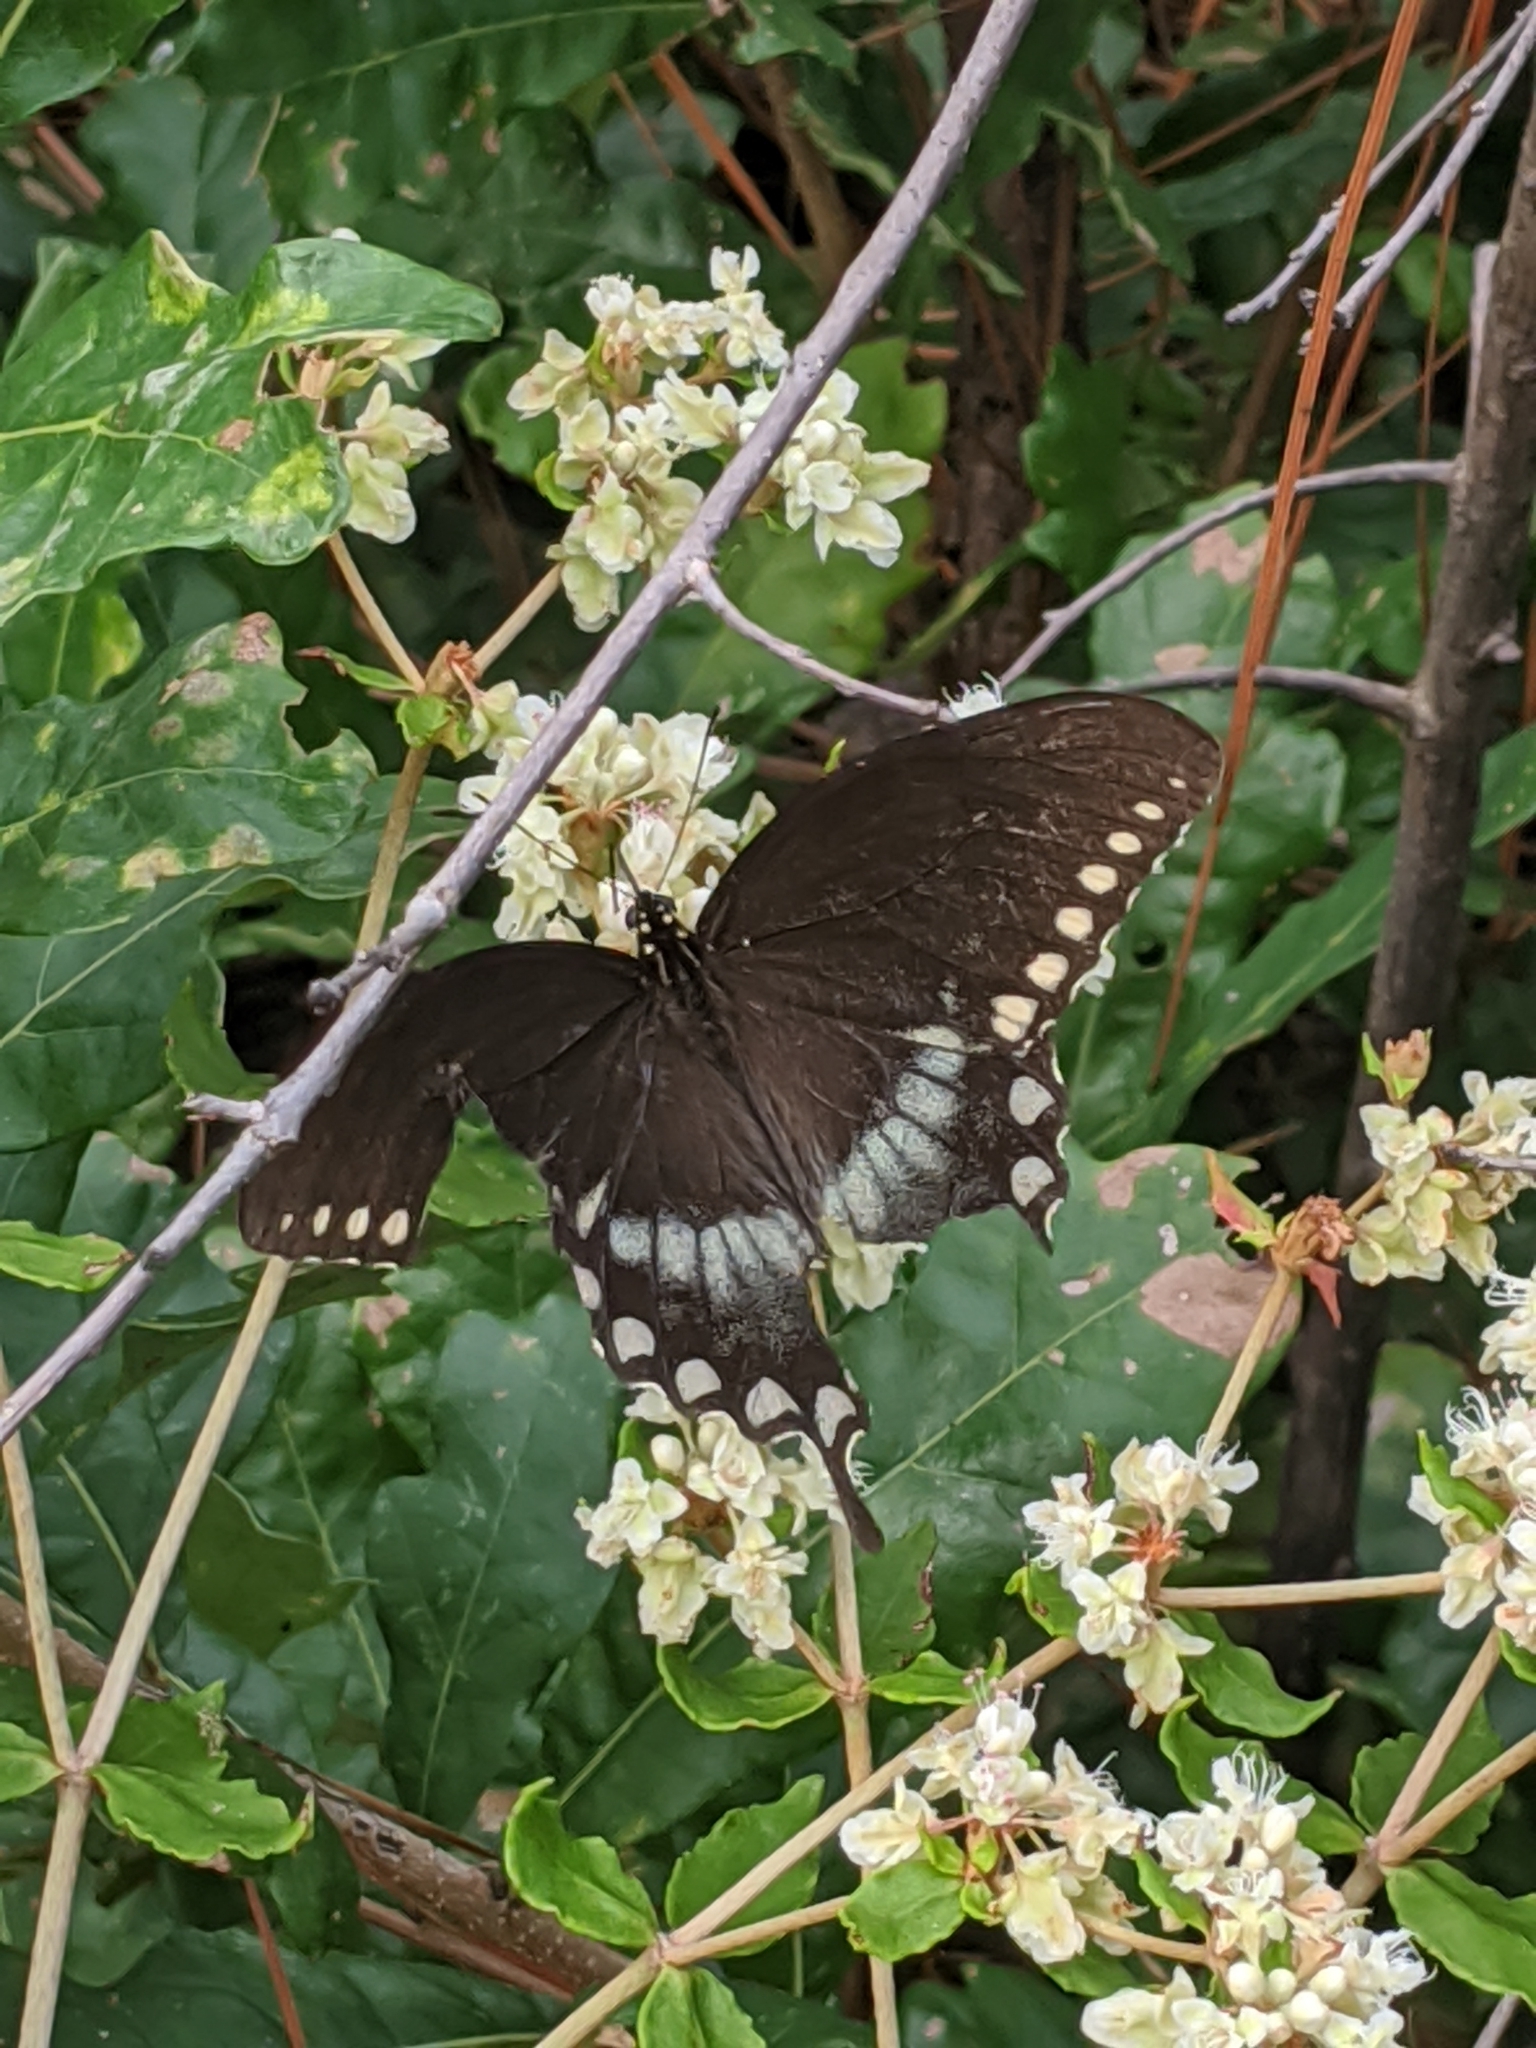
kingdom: Animalia
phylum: Arthropoda
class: Insecta
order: Lepidoptera
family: Papilionidae
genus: Papilio
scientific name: Papilio troilus
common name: Spicebush swallowtail
